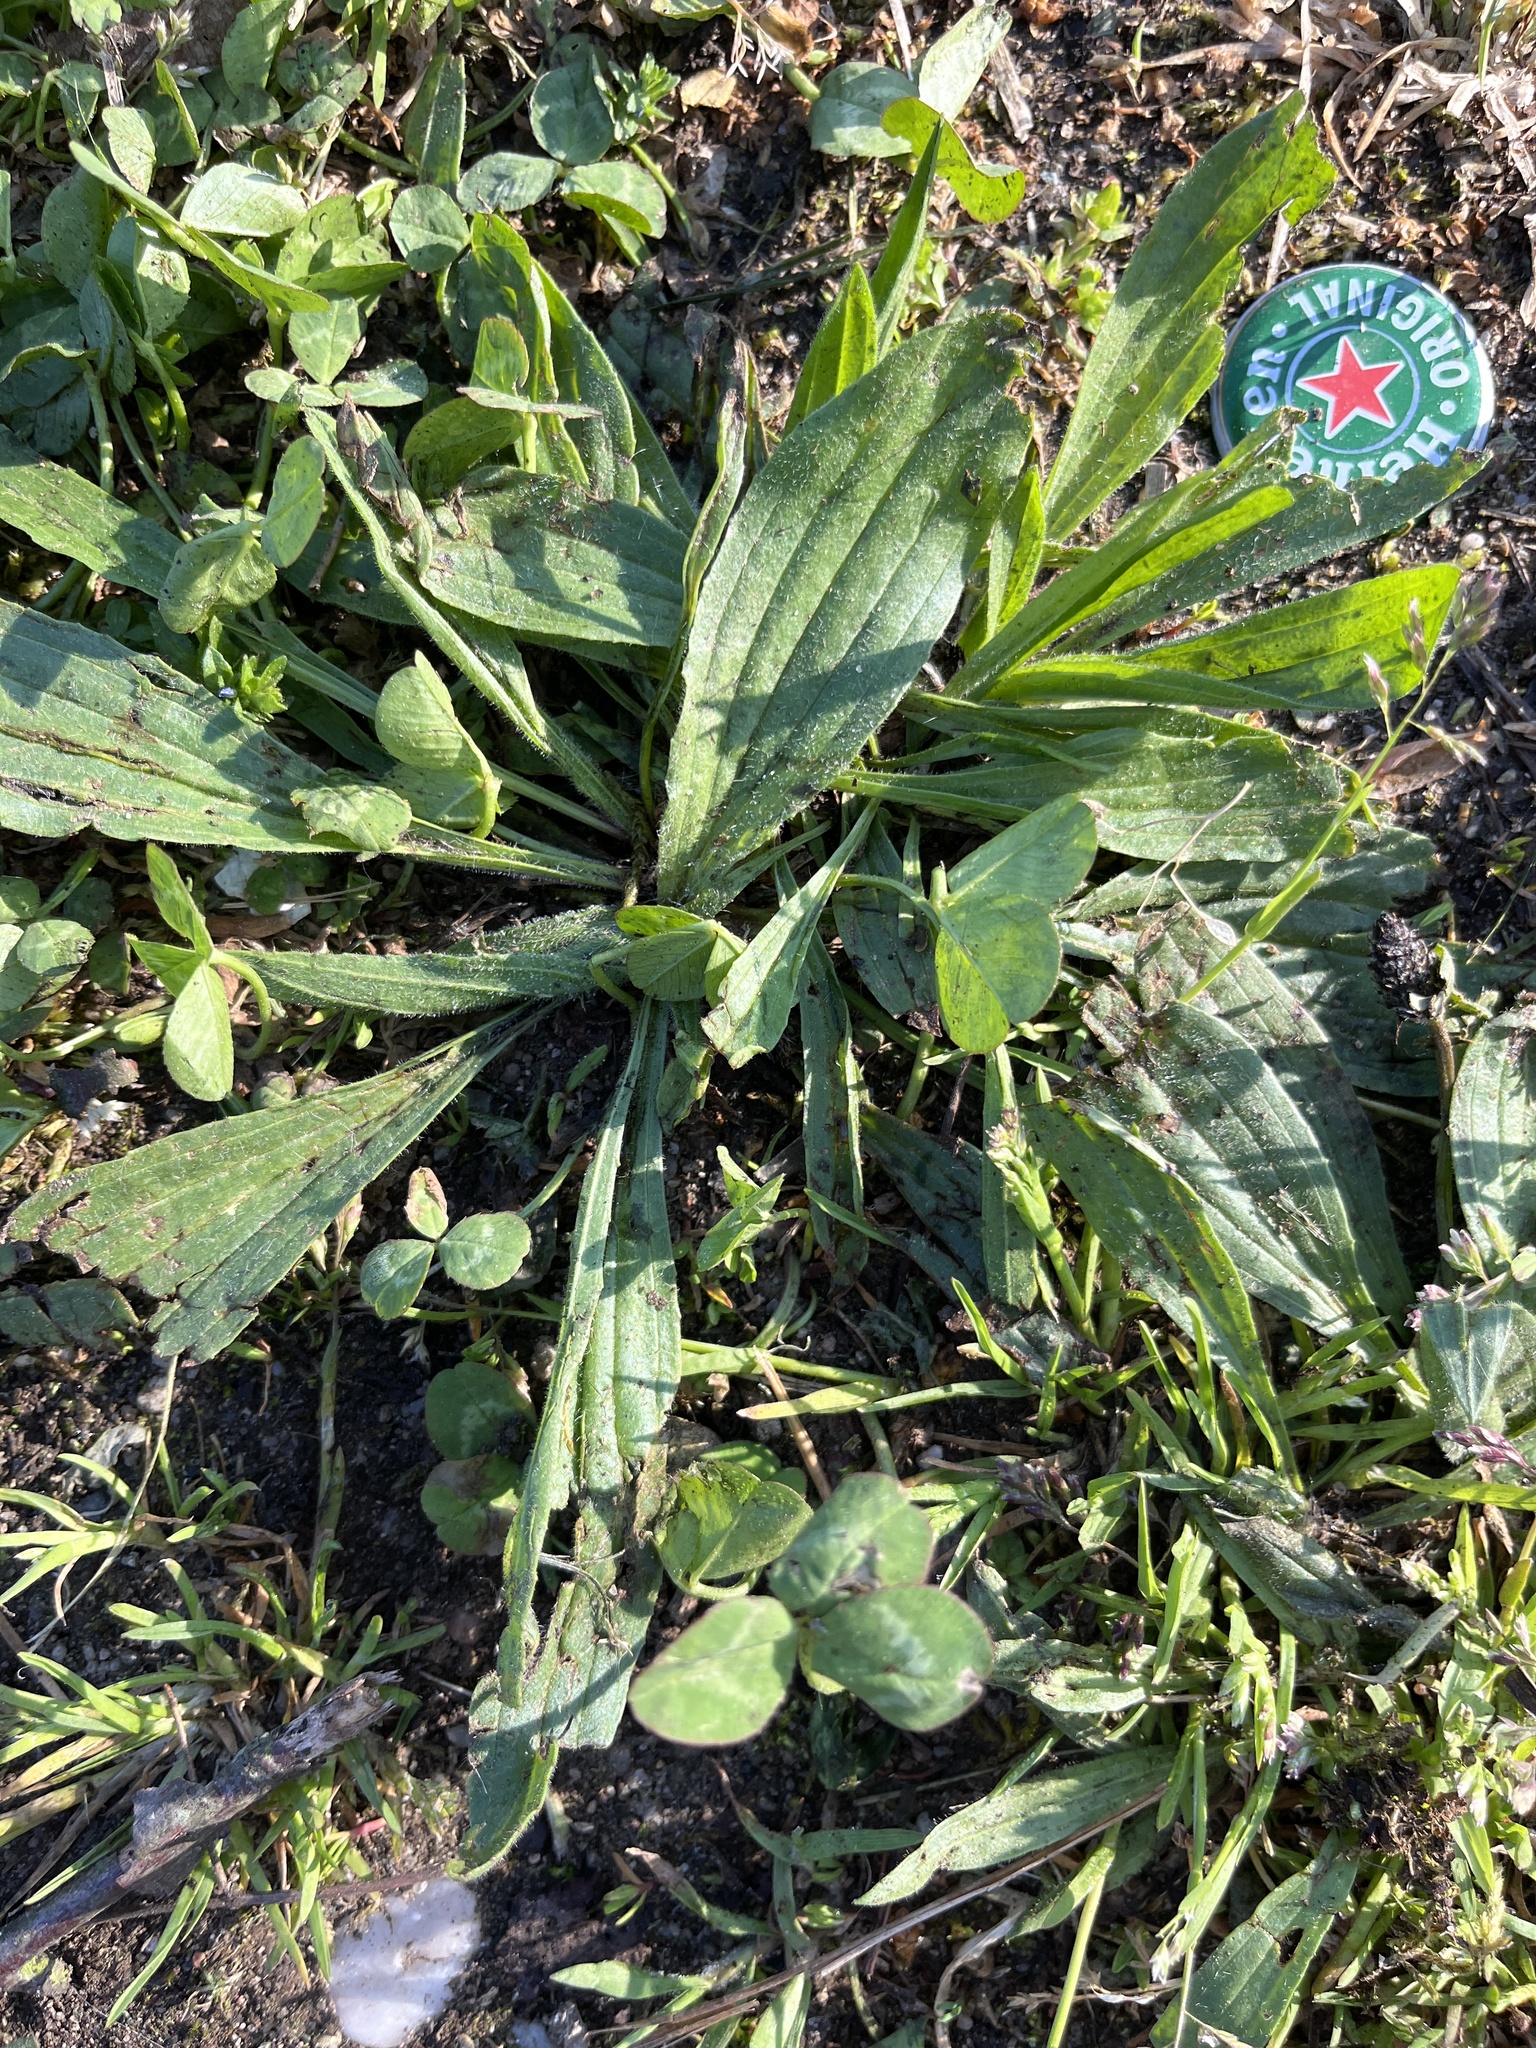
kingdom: Plantae
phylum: Tracheophyta
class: Magnoliopsida
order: Lamiales
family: Plantaginaceae
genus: Plantago
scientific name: Plantago lanceolata
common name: Ribwort plantain
